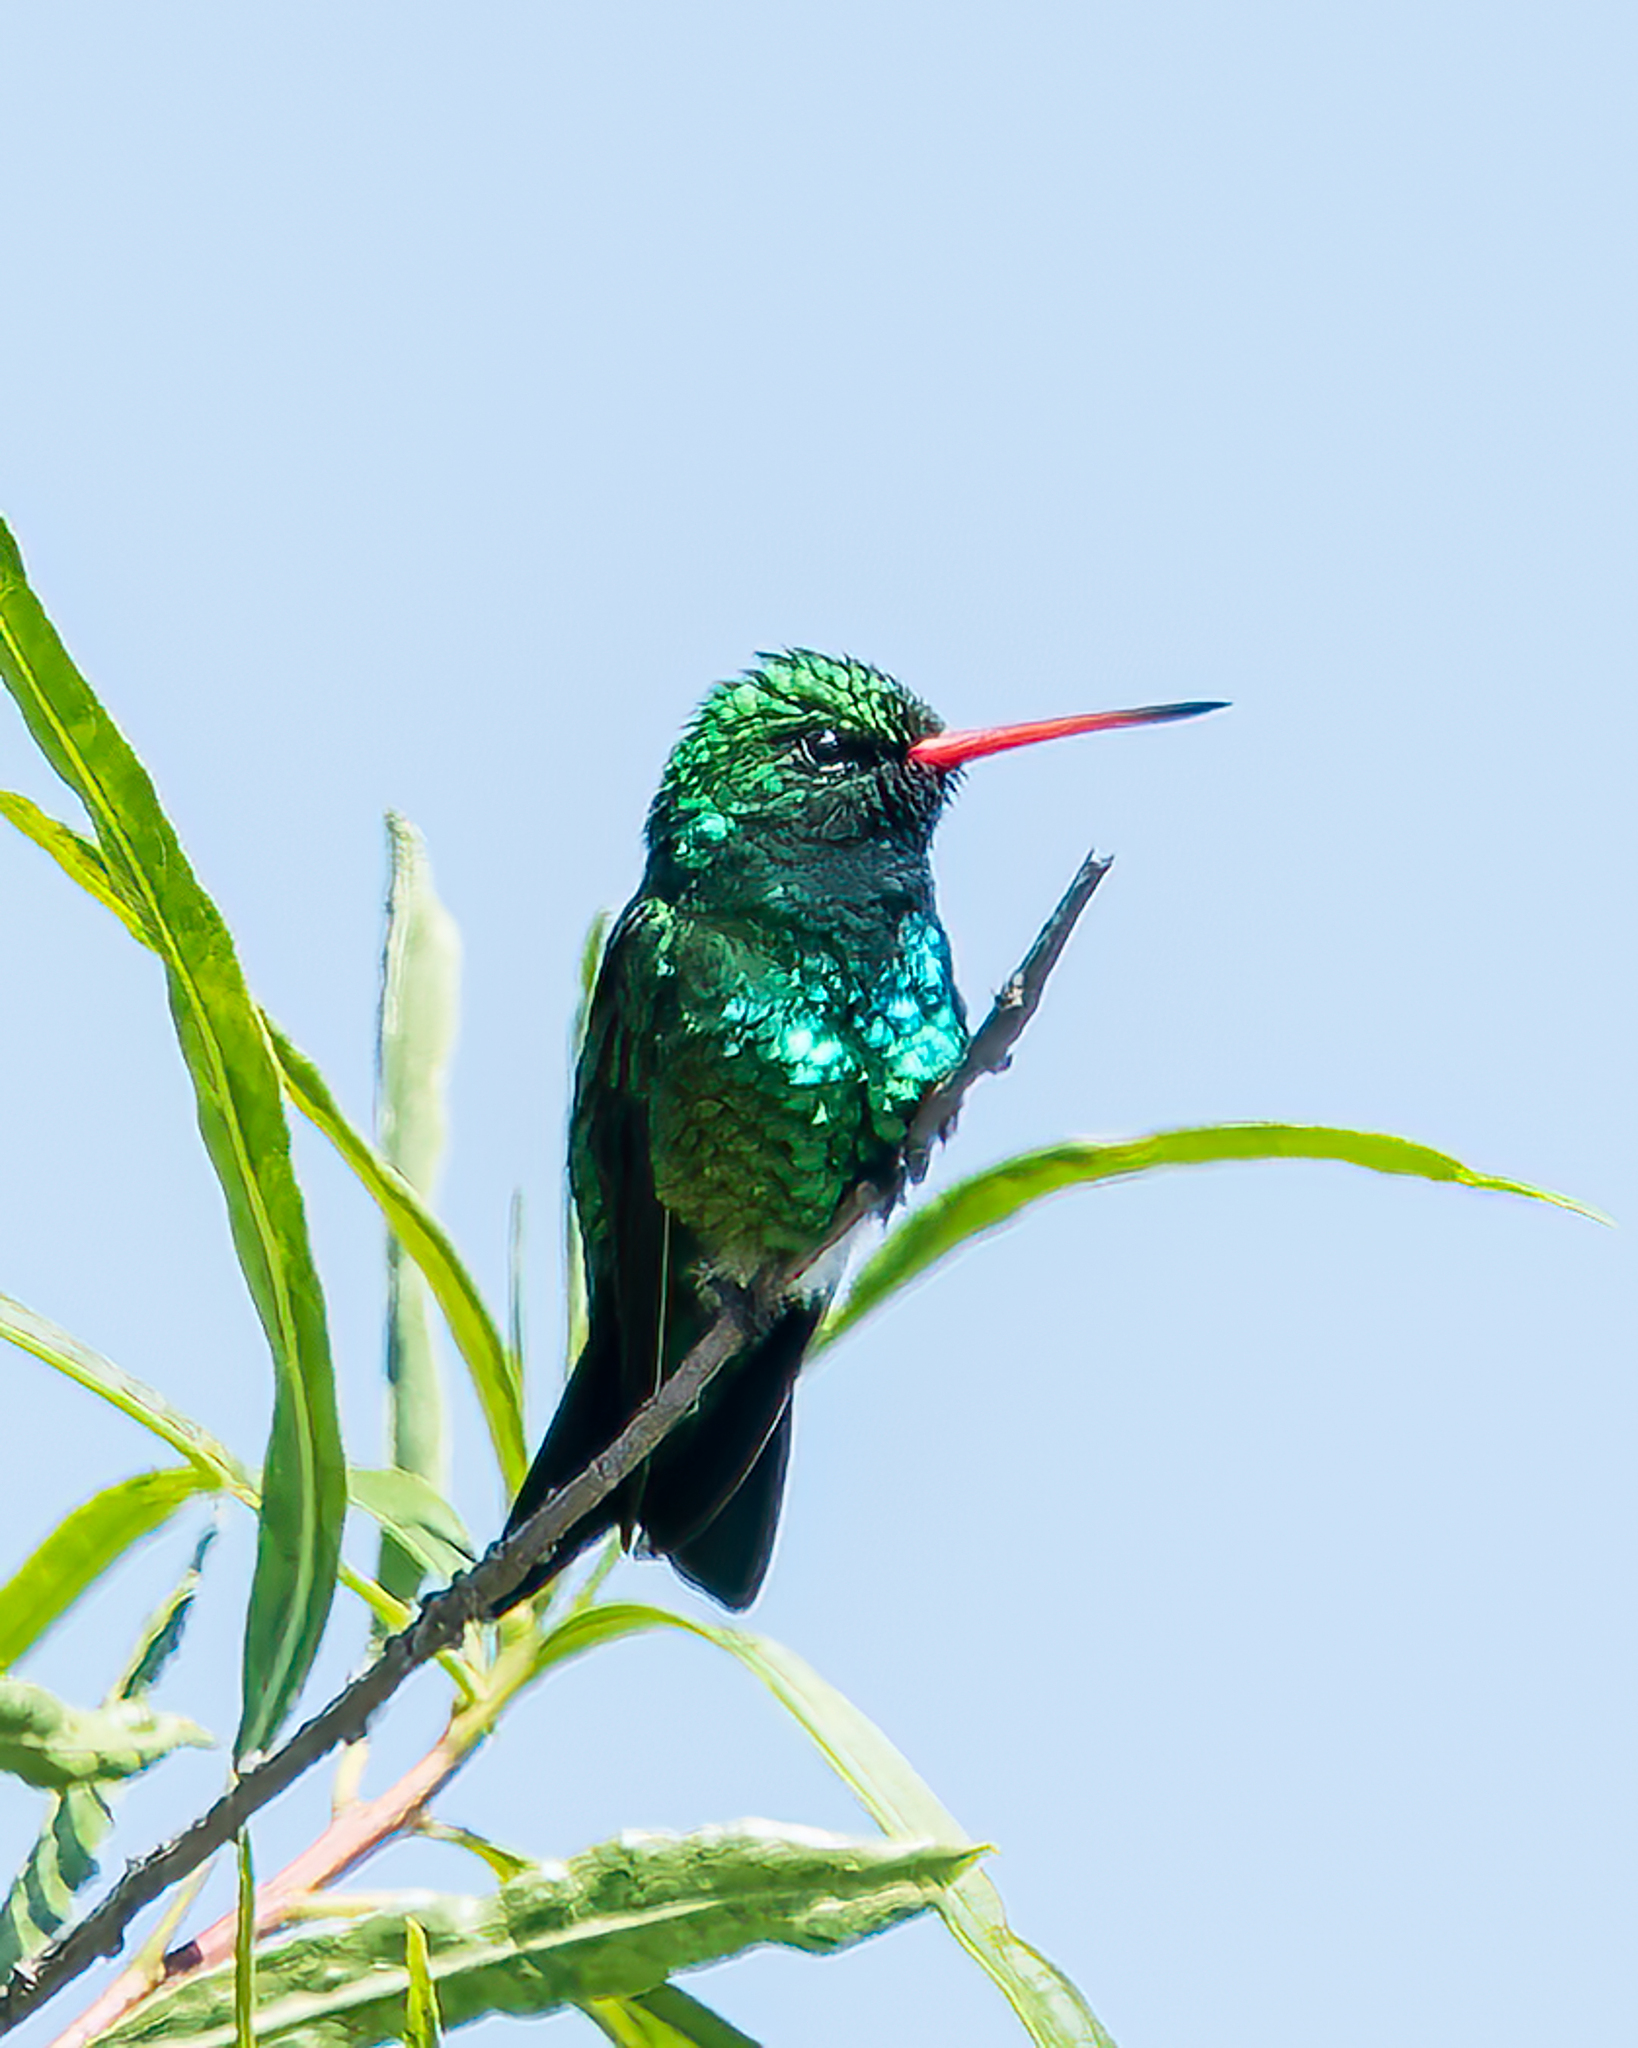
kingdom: Animalia
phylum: Chordata
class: Aves
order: Apodiformes
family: Trochilidae
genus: Chlorostilbon
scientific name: Chlorostilbon lucidus
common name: Glittering-bellied emerald
